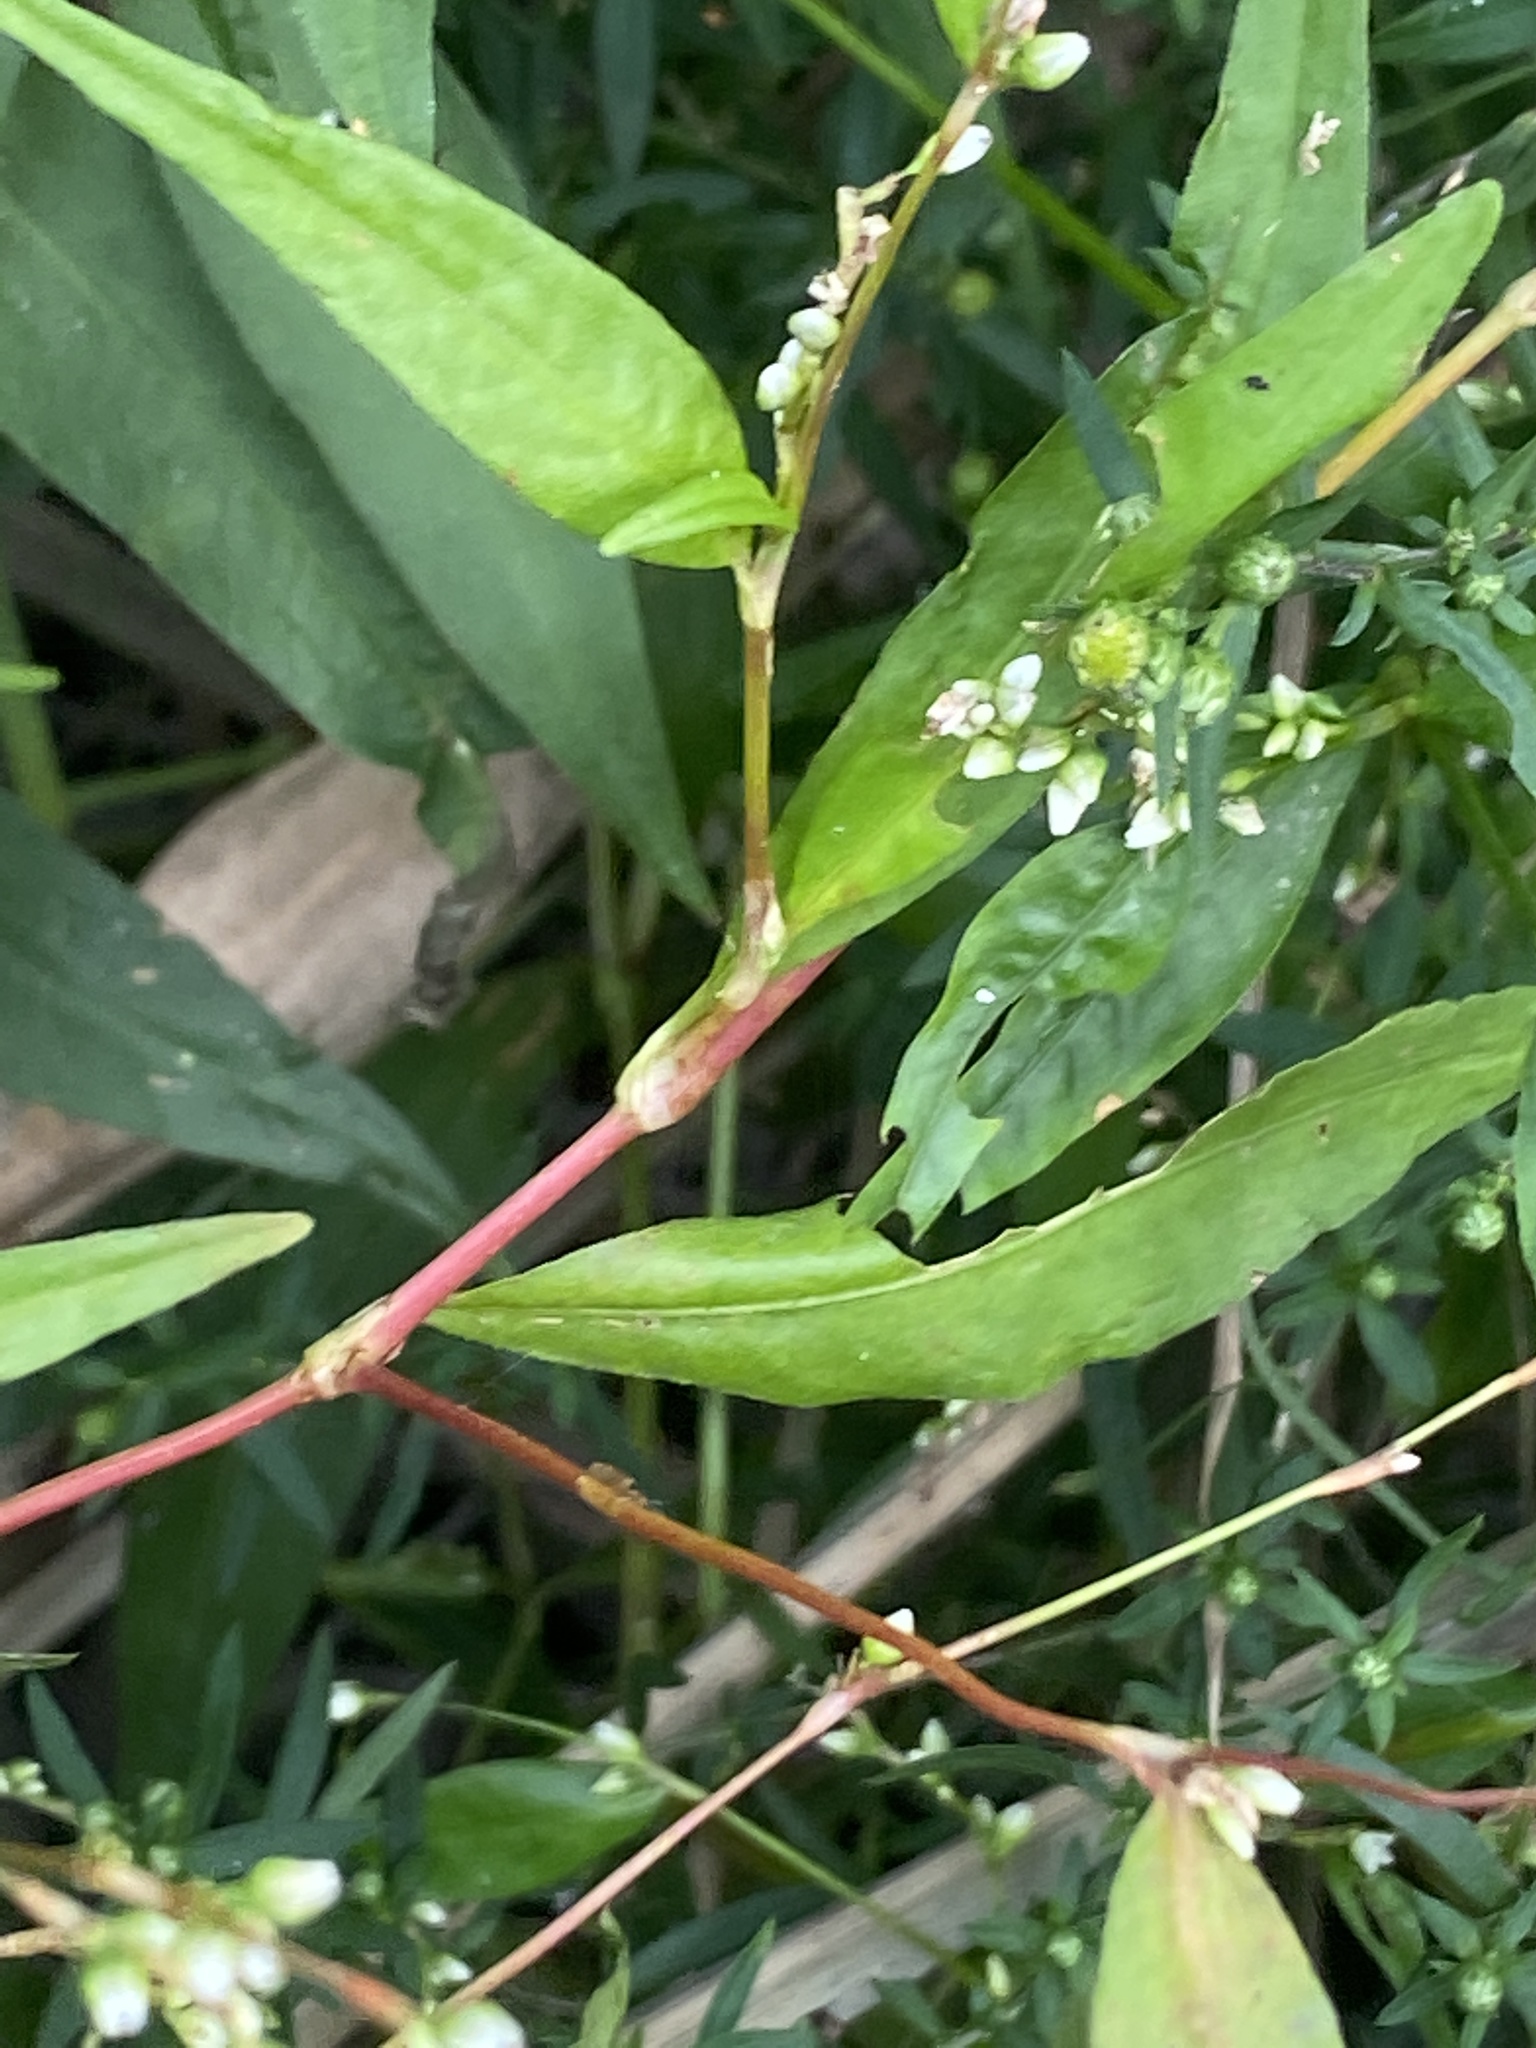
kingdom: Plantae
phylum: Tracheophyta
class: Magnoliopsida
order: Caryophyllales
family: Polygonaceae
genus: Persicaria
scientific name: Persicaria punctata
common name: Dotted smartweed
